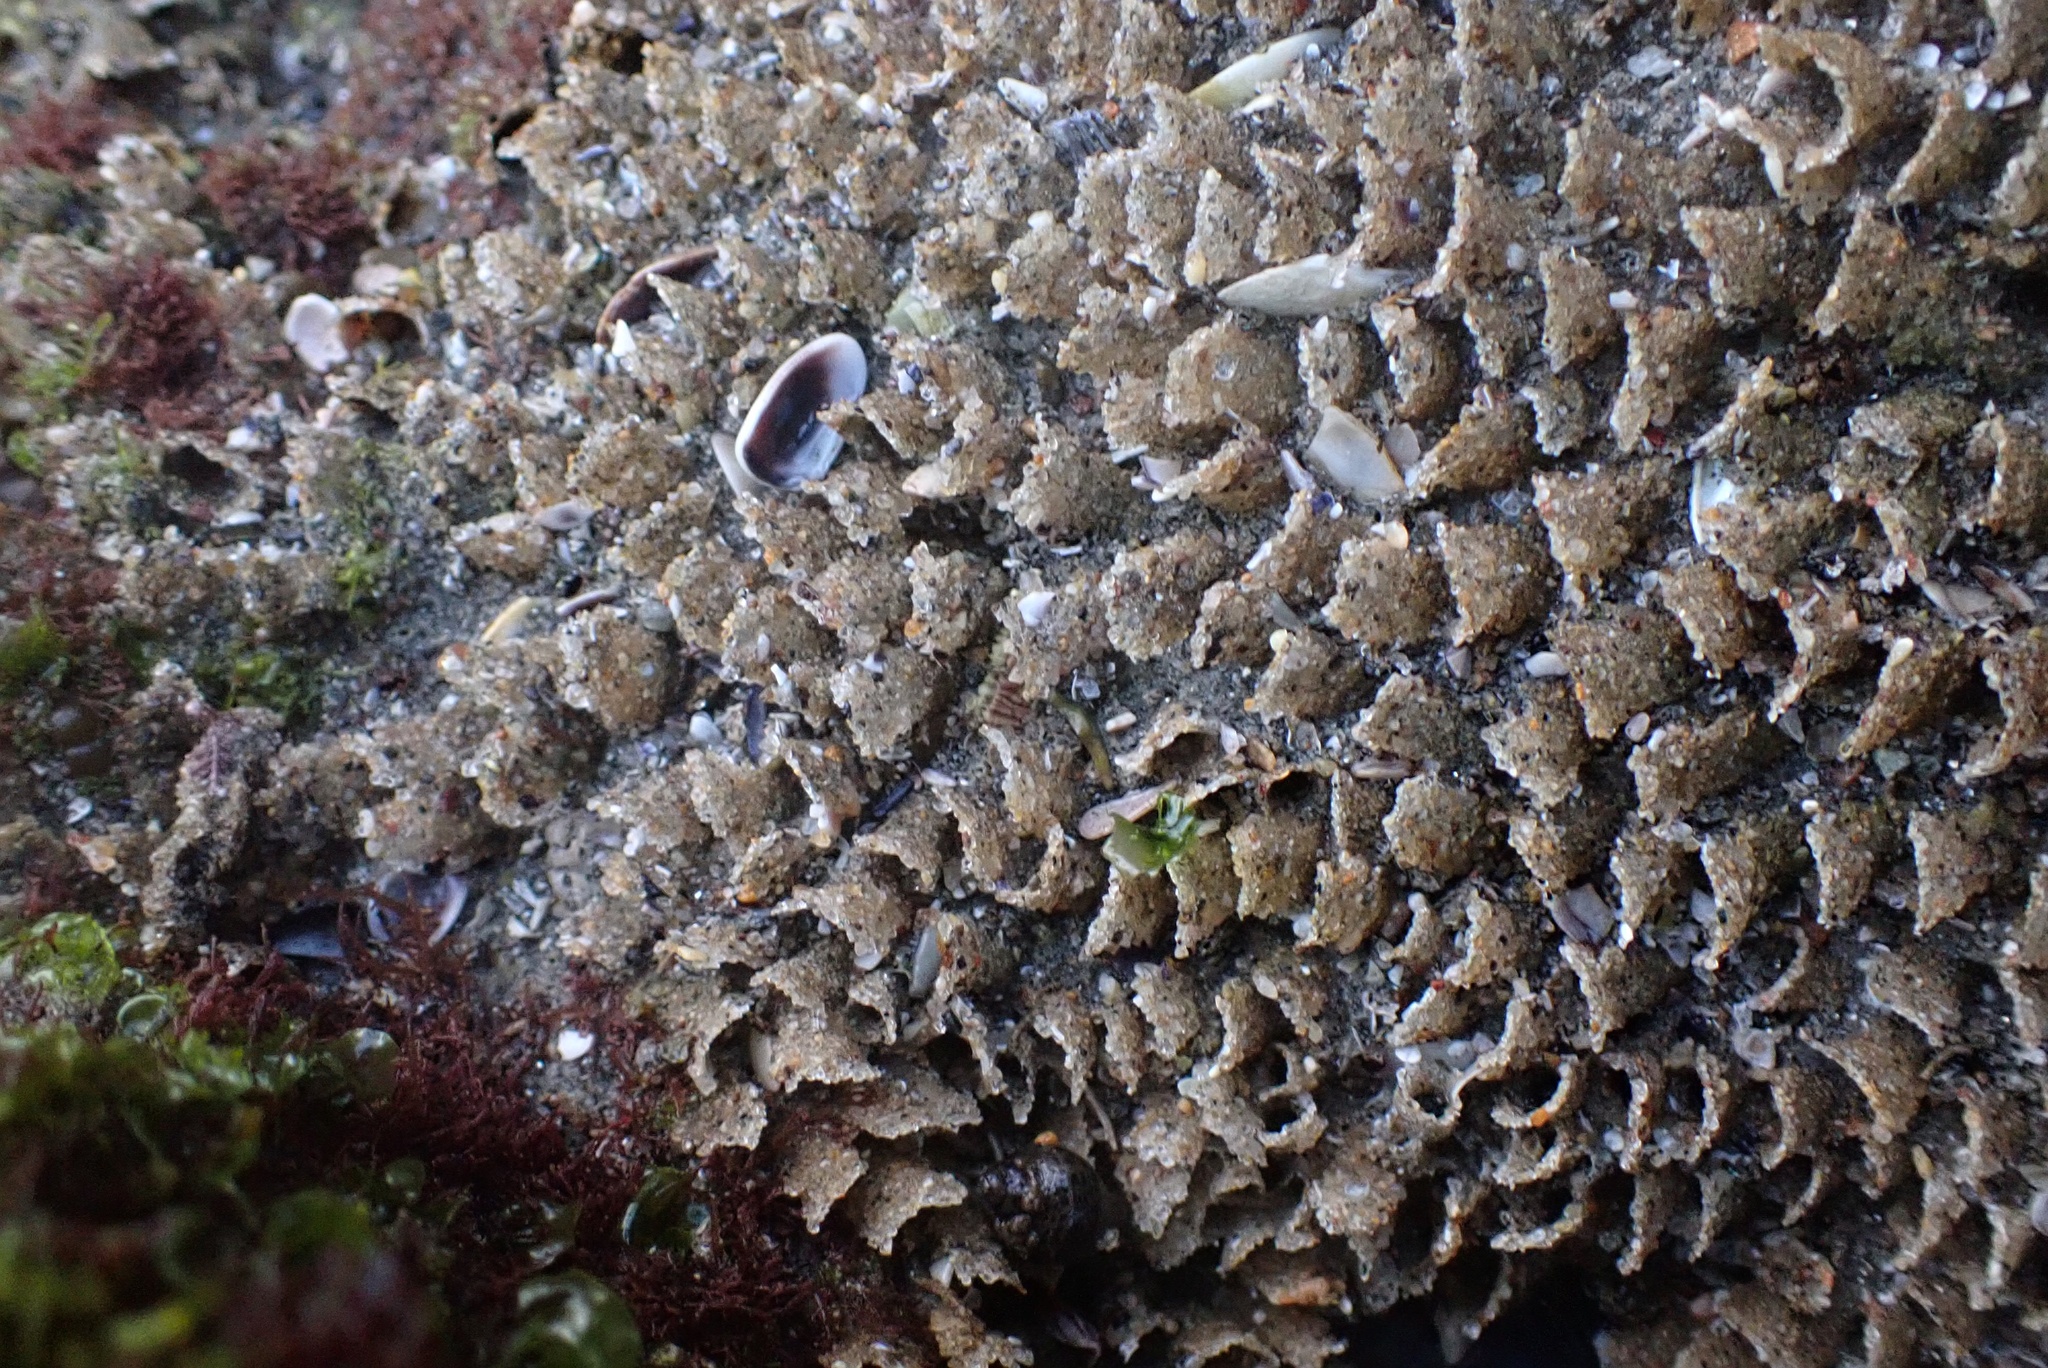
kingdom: Animalia
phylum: Annelida
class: Polychaeta
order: Sabellida
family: Sabellariidae
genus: Phragmatopoma
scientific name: Phragmatopoma californica
